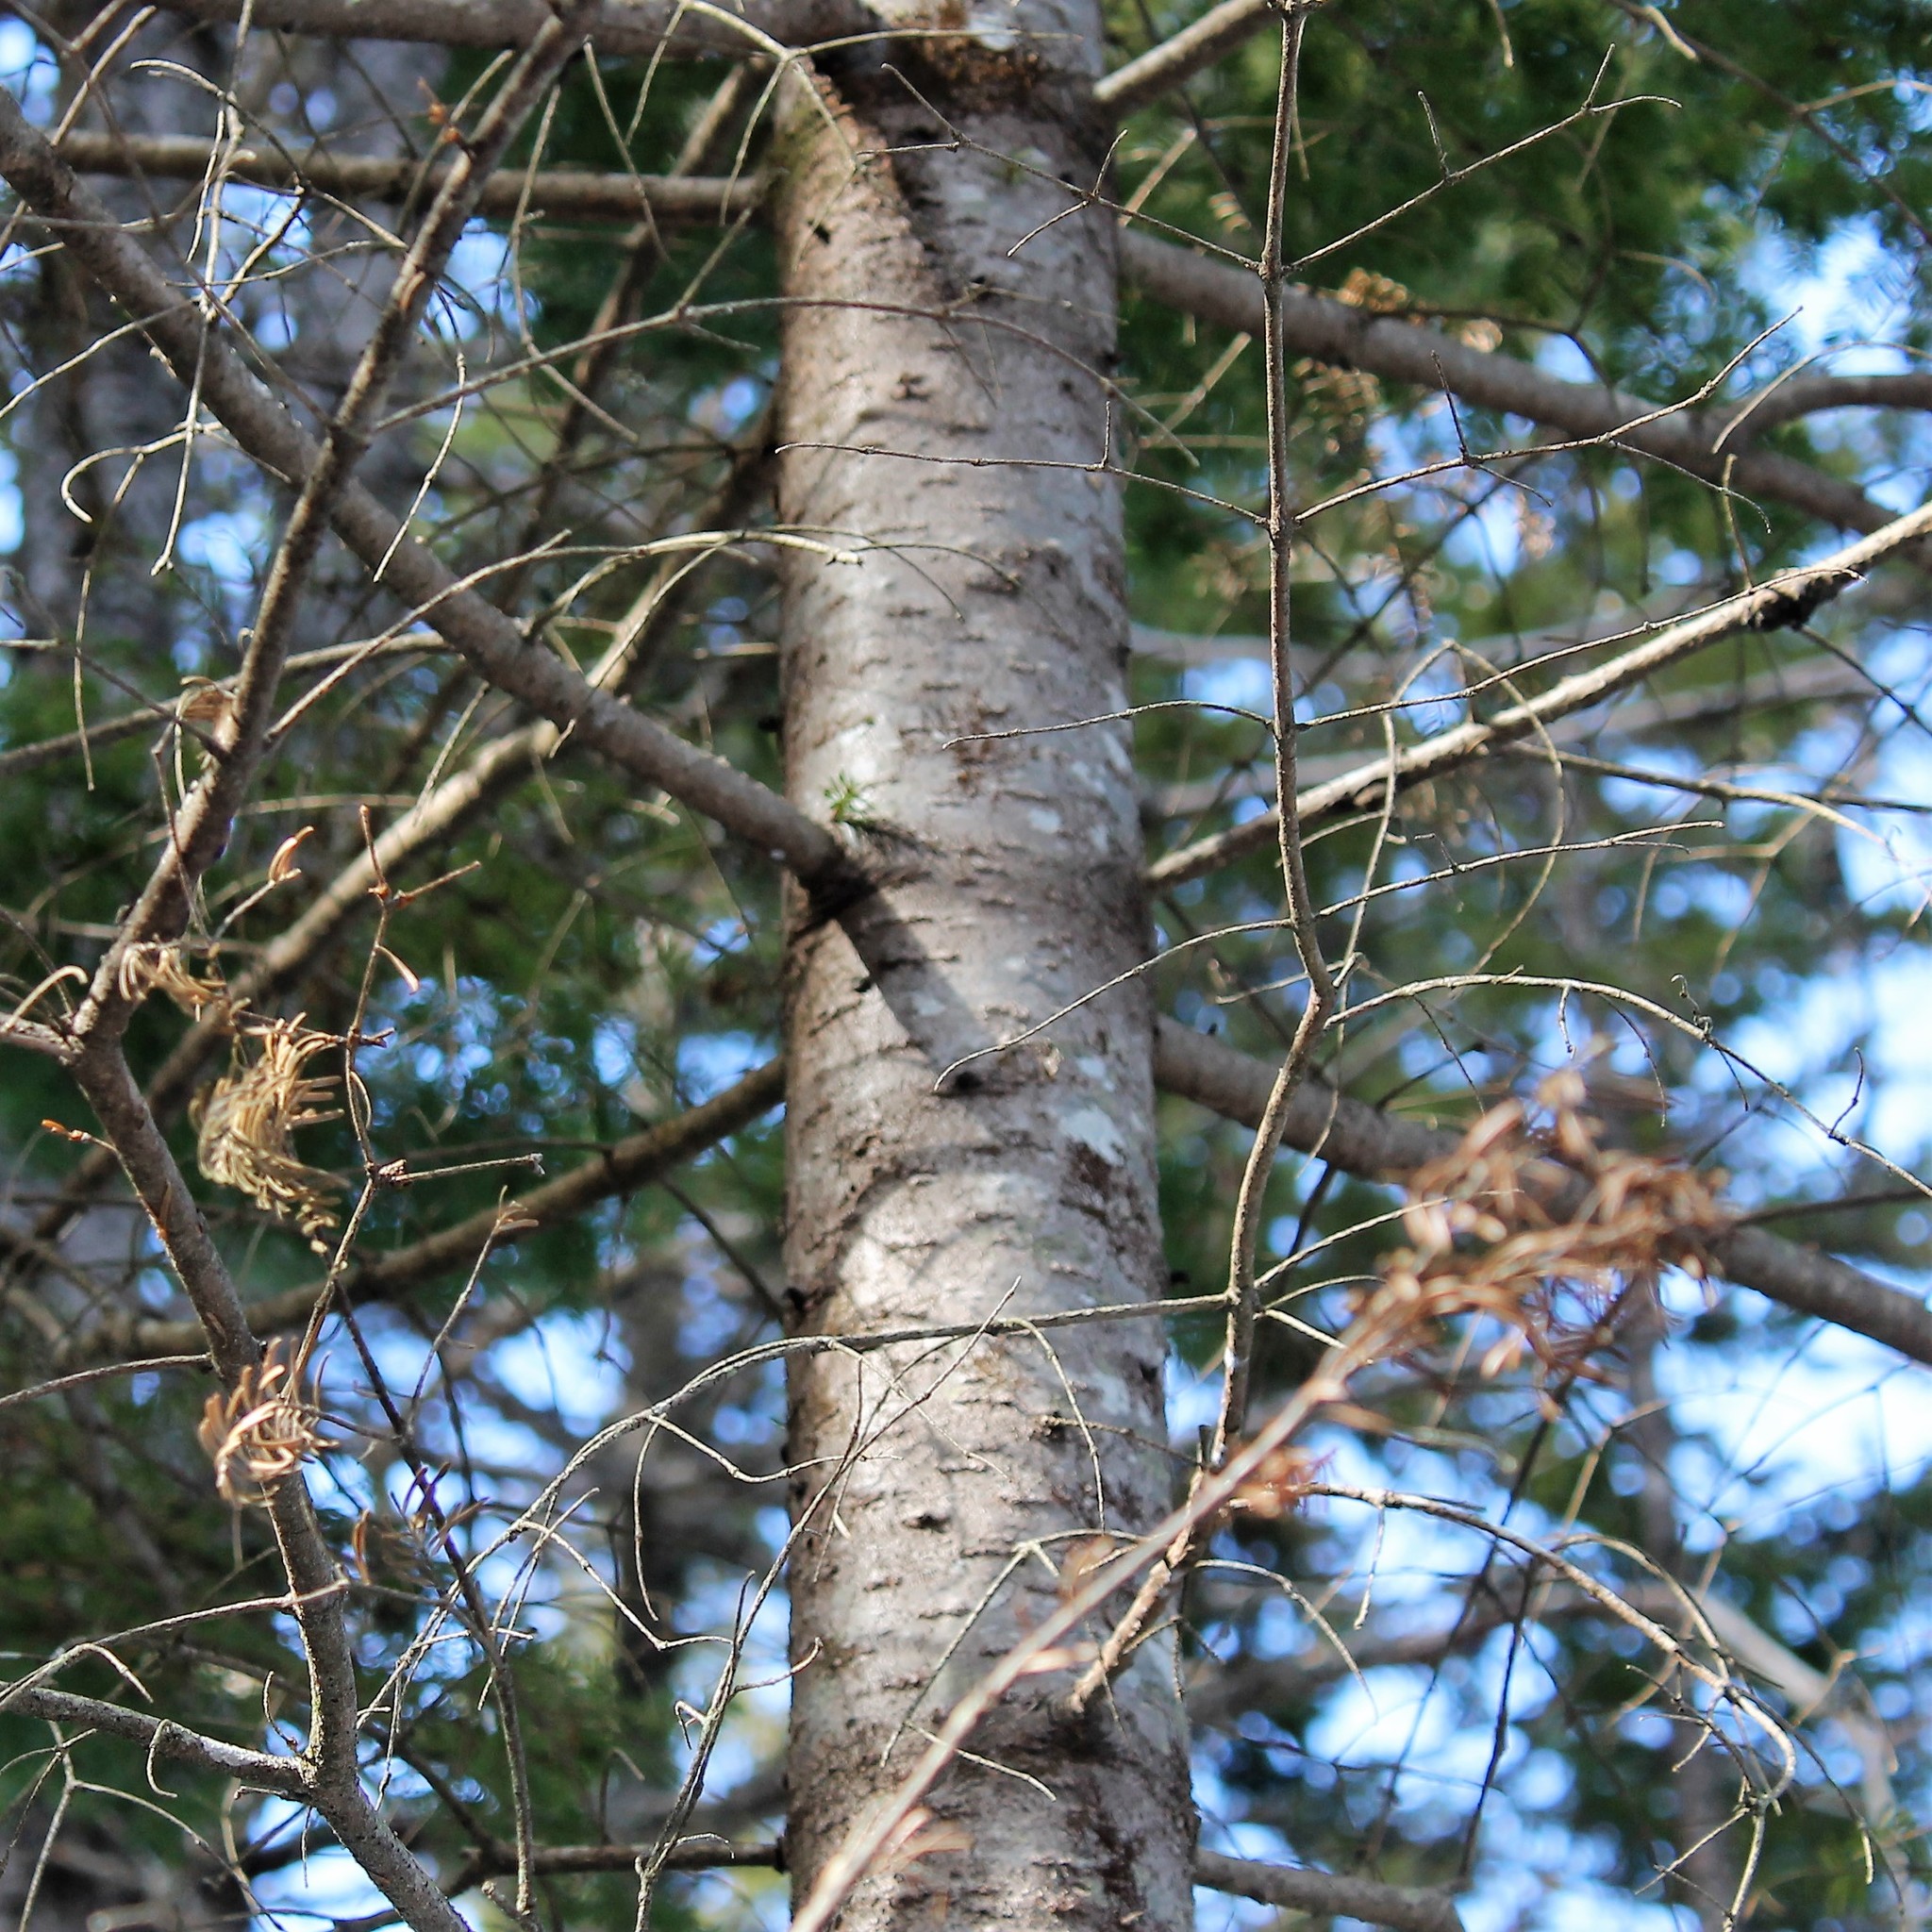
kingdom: Plantae
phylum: Tracheophyta
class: Pinopsida
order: Pinales
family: Pinaceae
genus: Abies
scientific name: Abies balsamea
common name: Balsam fir
